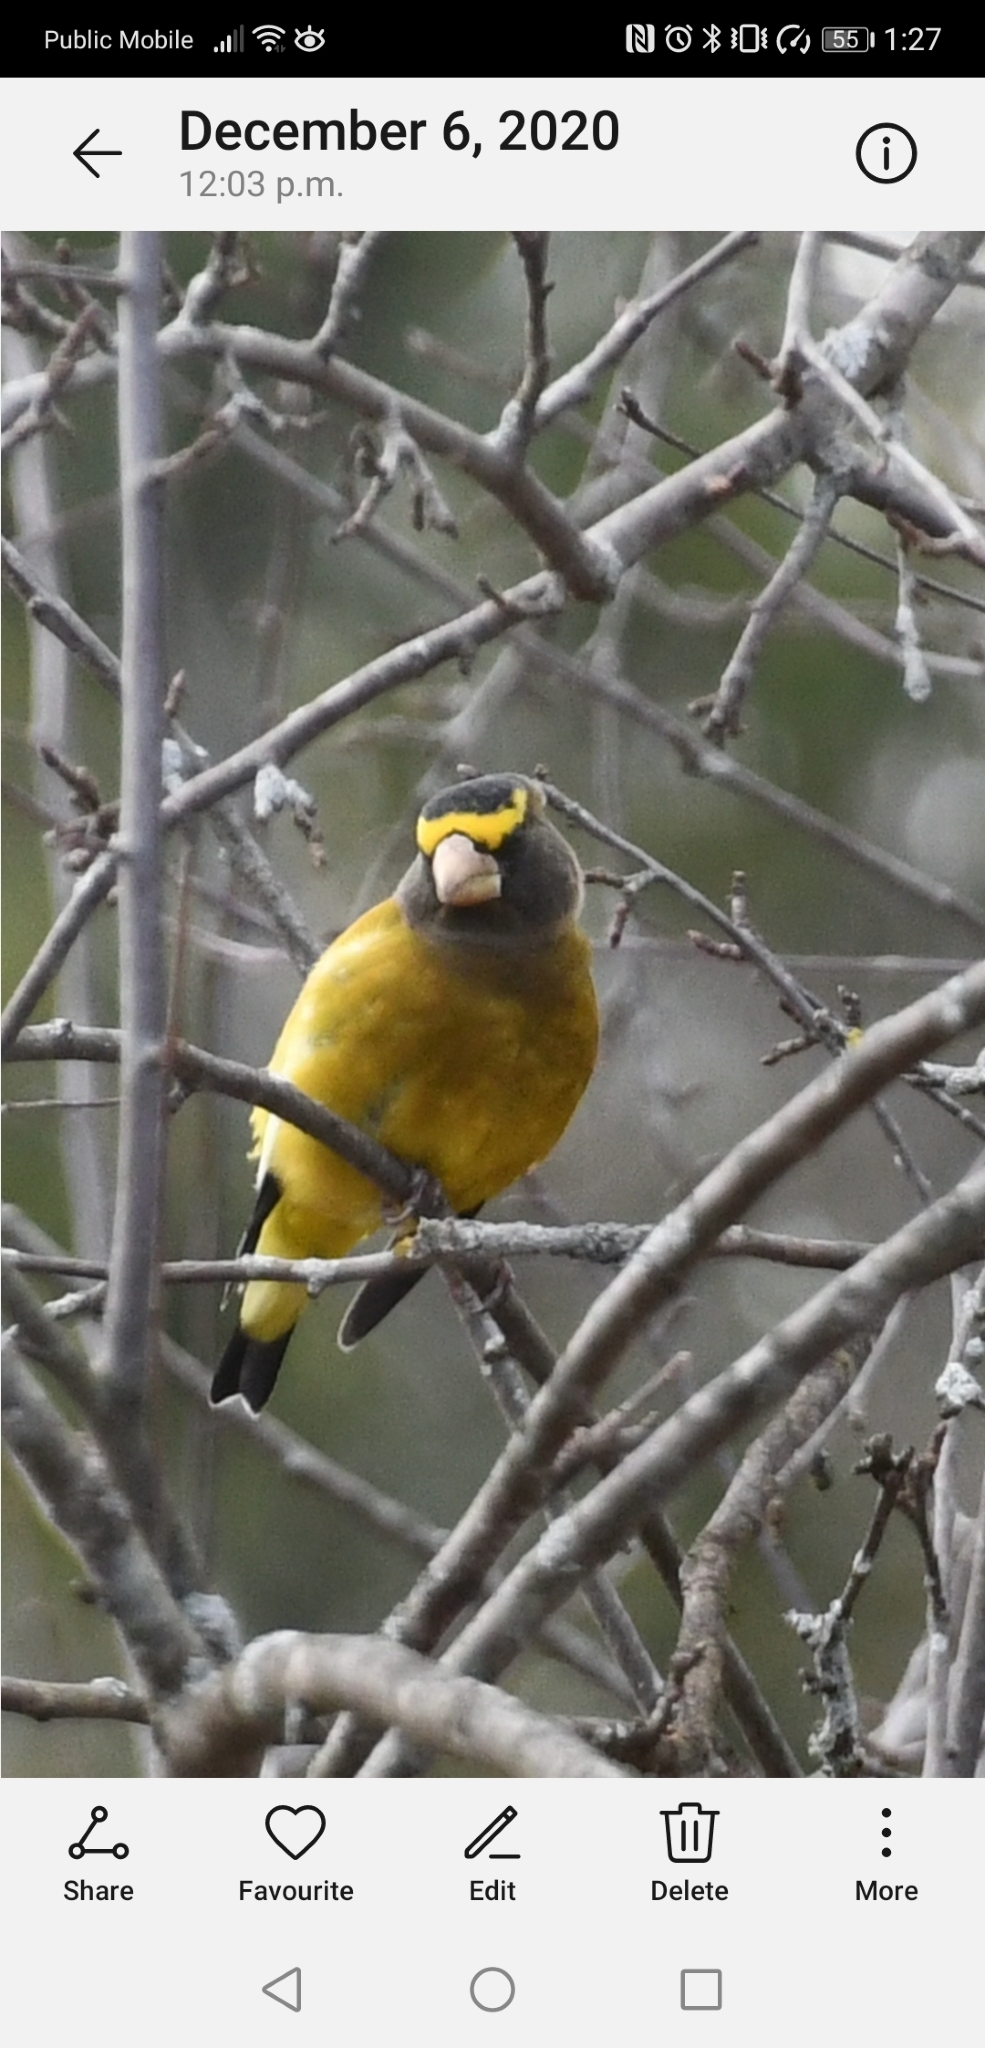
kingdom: Animalia
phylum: Chordata
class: Aves
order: Passeriformes
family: Fringillidae
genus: Hesperiphona
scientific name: Hesperiphona vespertina
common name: Evening grosbeak
